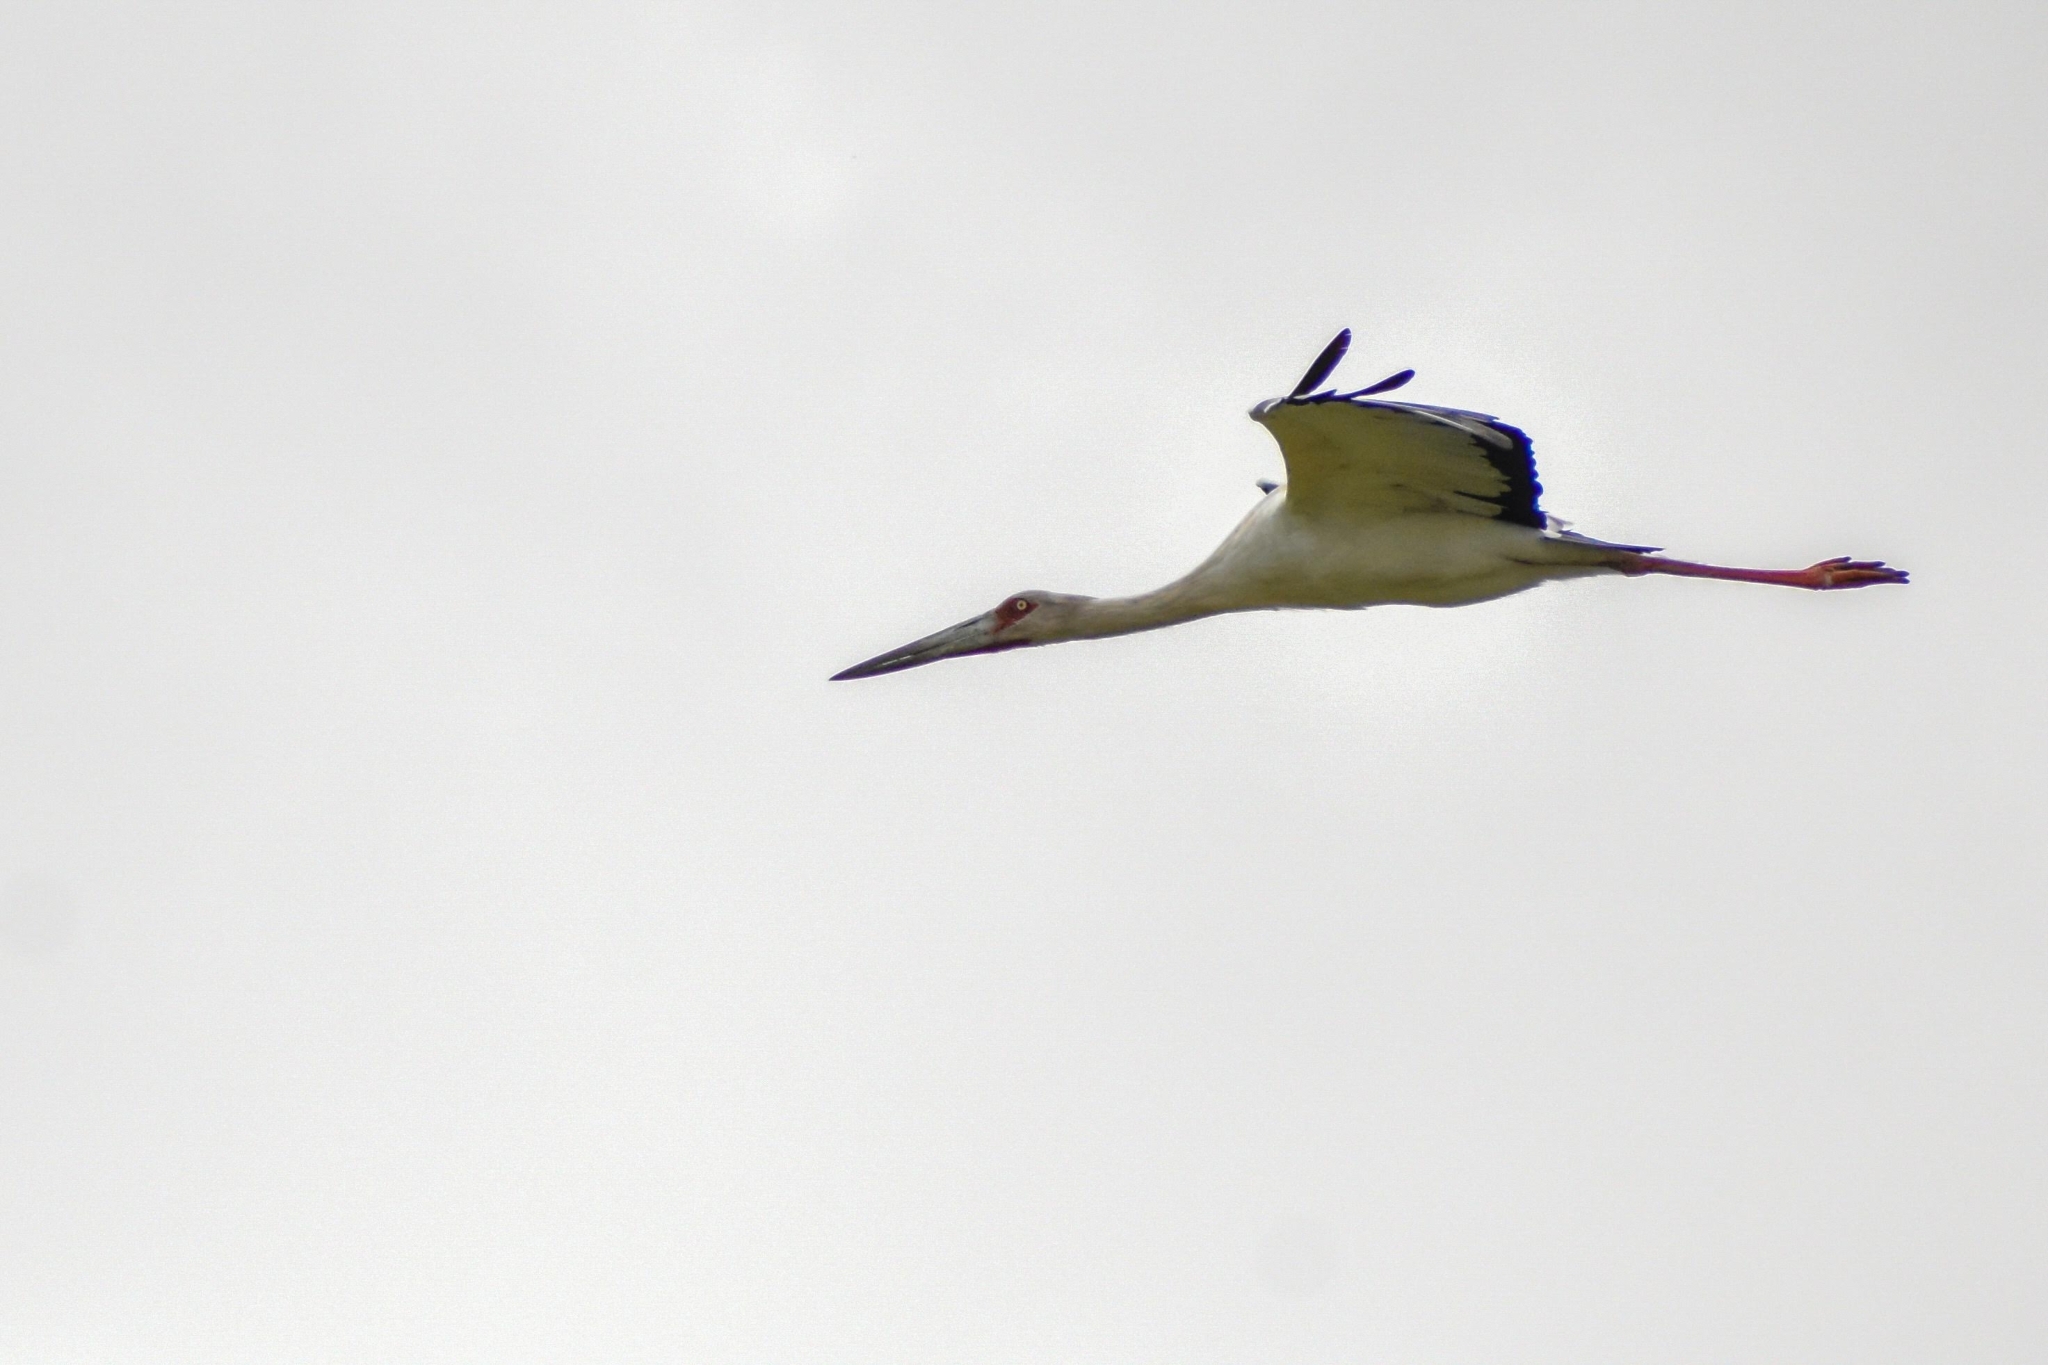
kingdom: Animalia
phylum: Chordata
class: Aves
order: Ciconiiformes
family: Ciconiidae
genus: Ciconia
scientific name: Ciconia maguari
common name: Maguari stork
